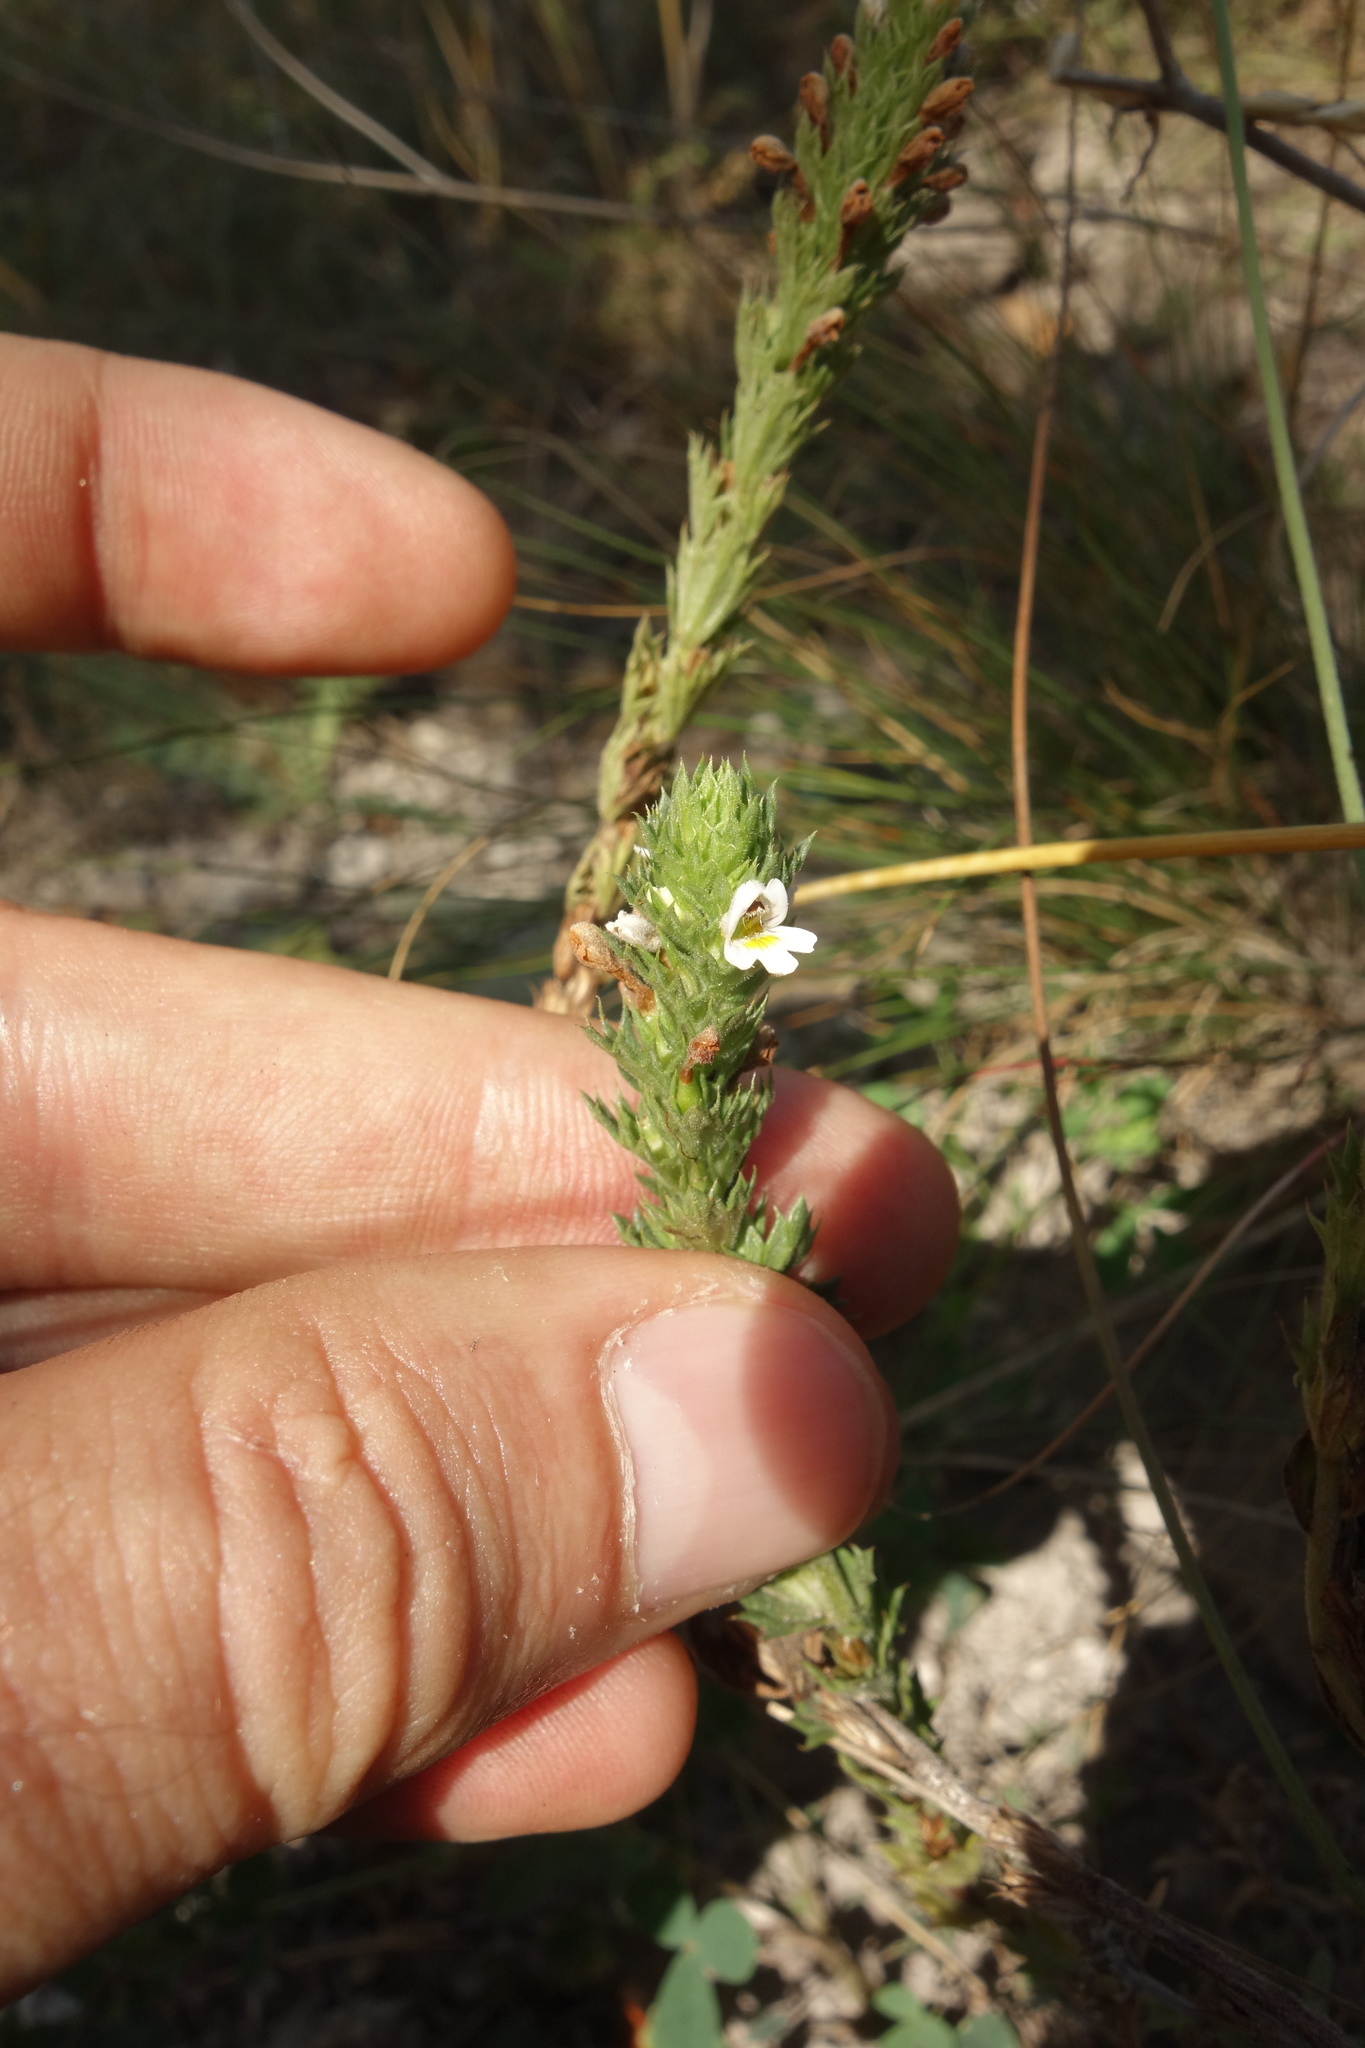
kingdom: Plantae
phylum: Tracheophyta
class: Magnoliopsida
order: Lamiales
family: Orobanchaceae
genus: Euphrasia
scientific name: Euphrasia stricta
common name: Drug eyebright
